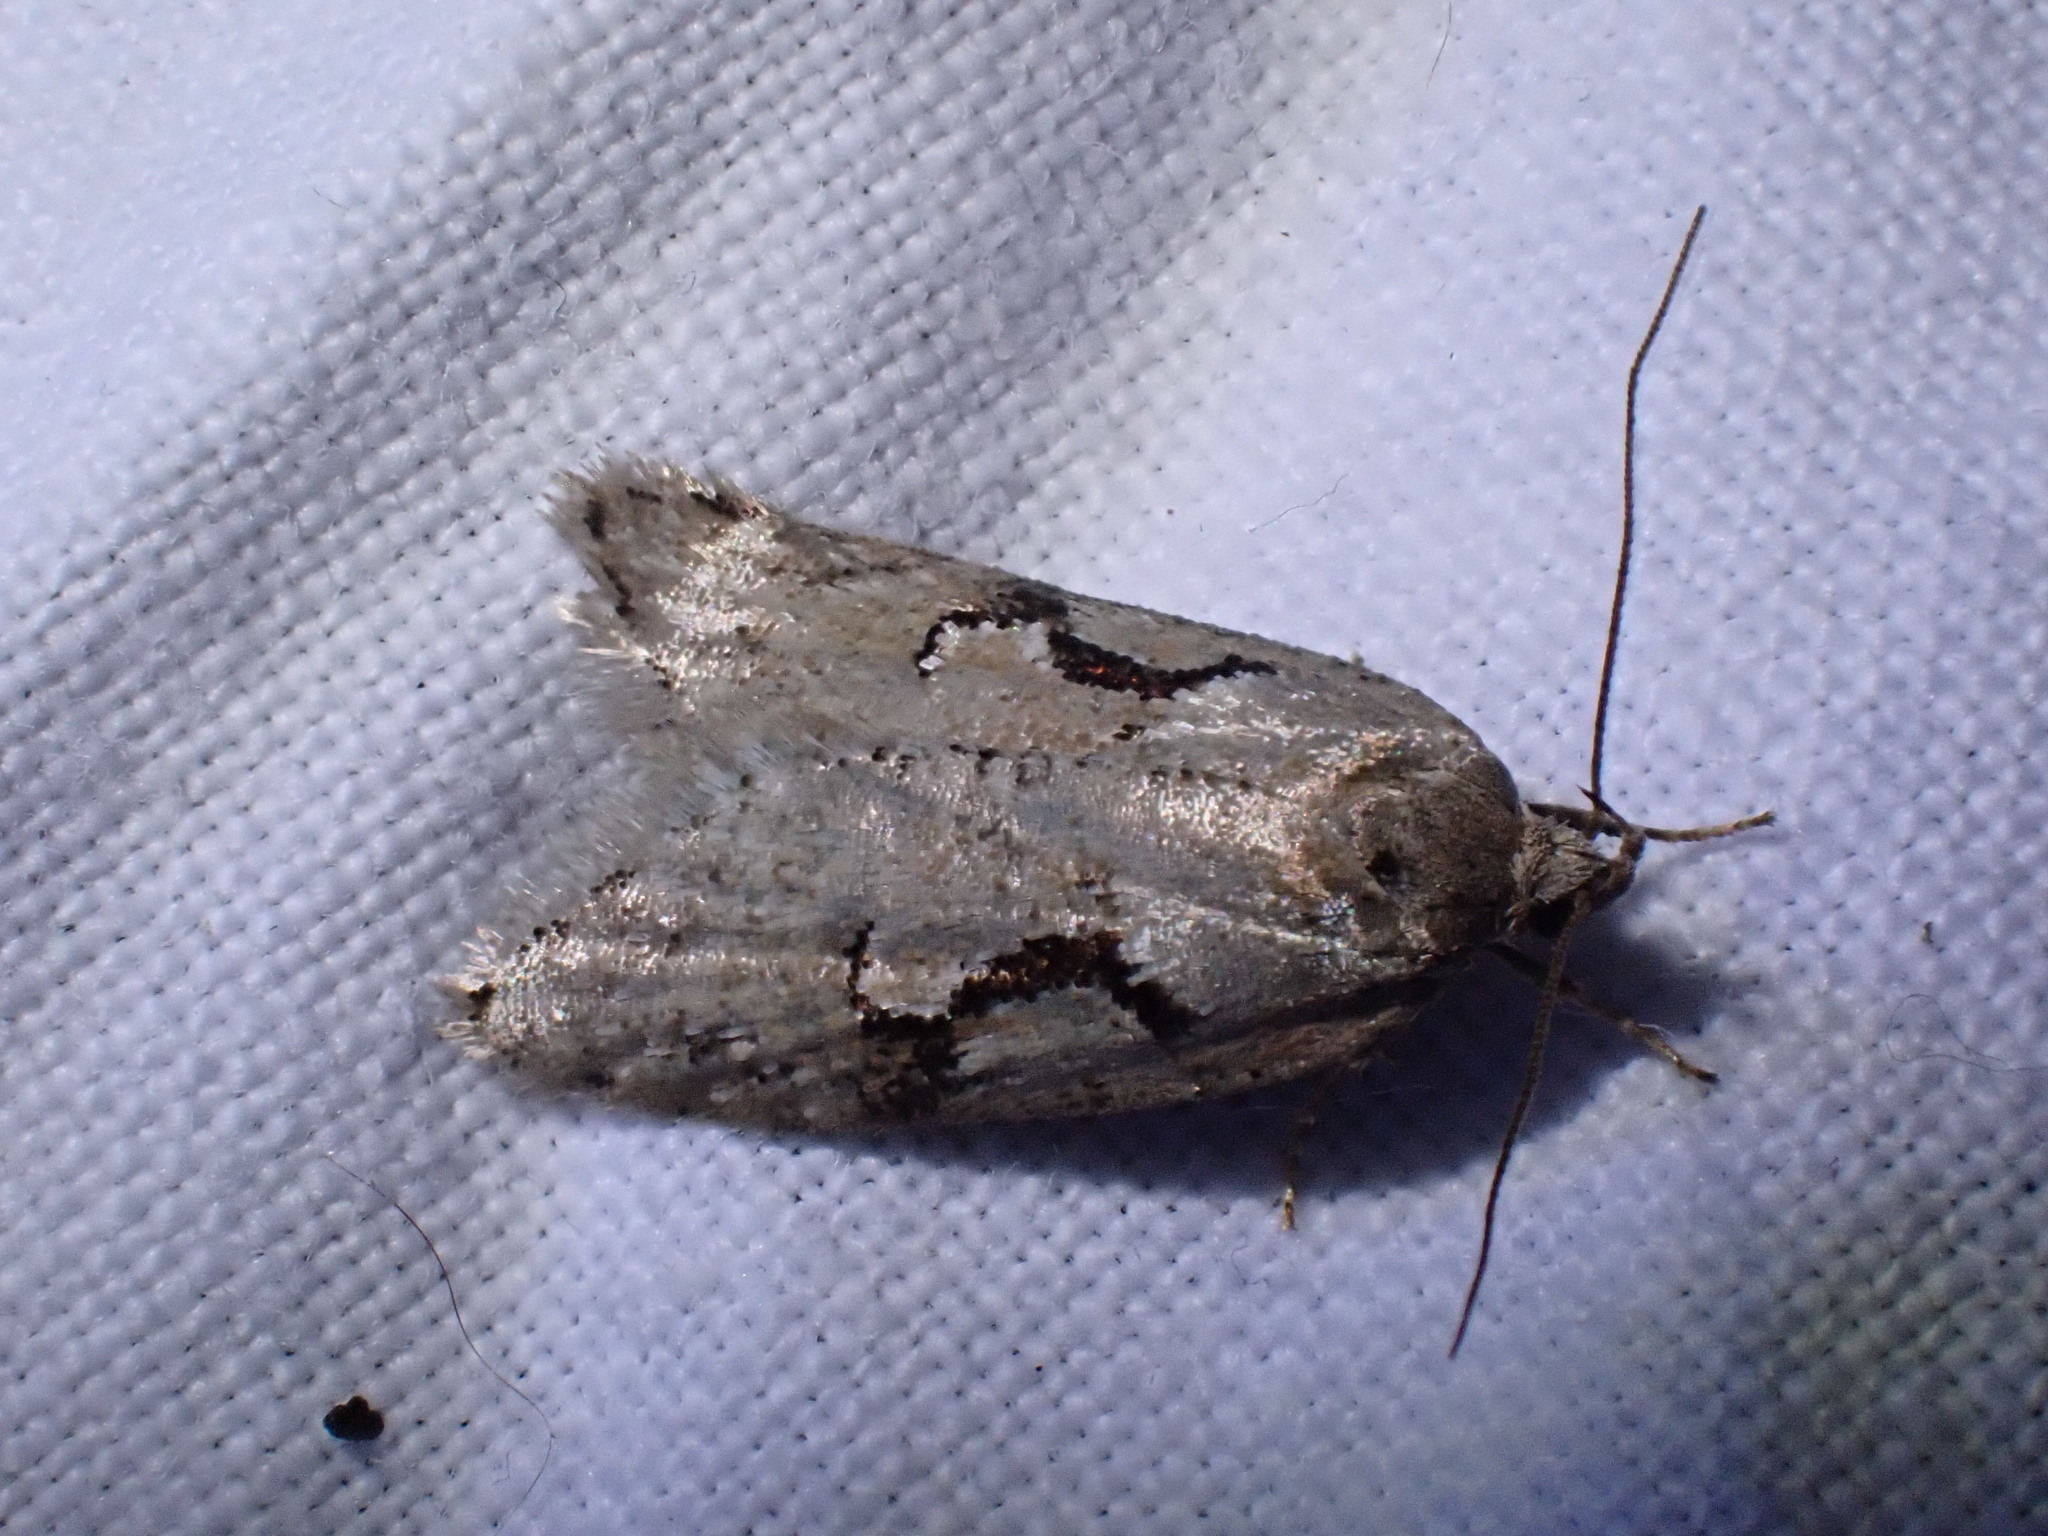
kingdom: Animalia
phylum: Arthropoda
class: Insecta
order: Lepidoptera
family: Depressariidae
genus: Semioscopis
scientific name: Semioscopis steinkellneriana
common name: Dawn flat-body
